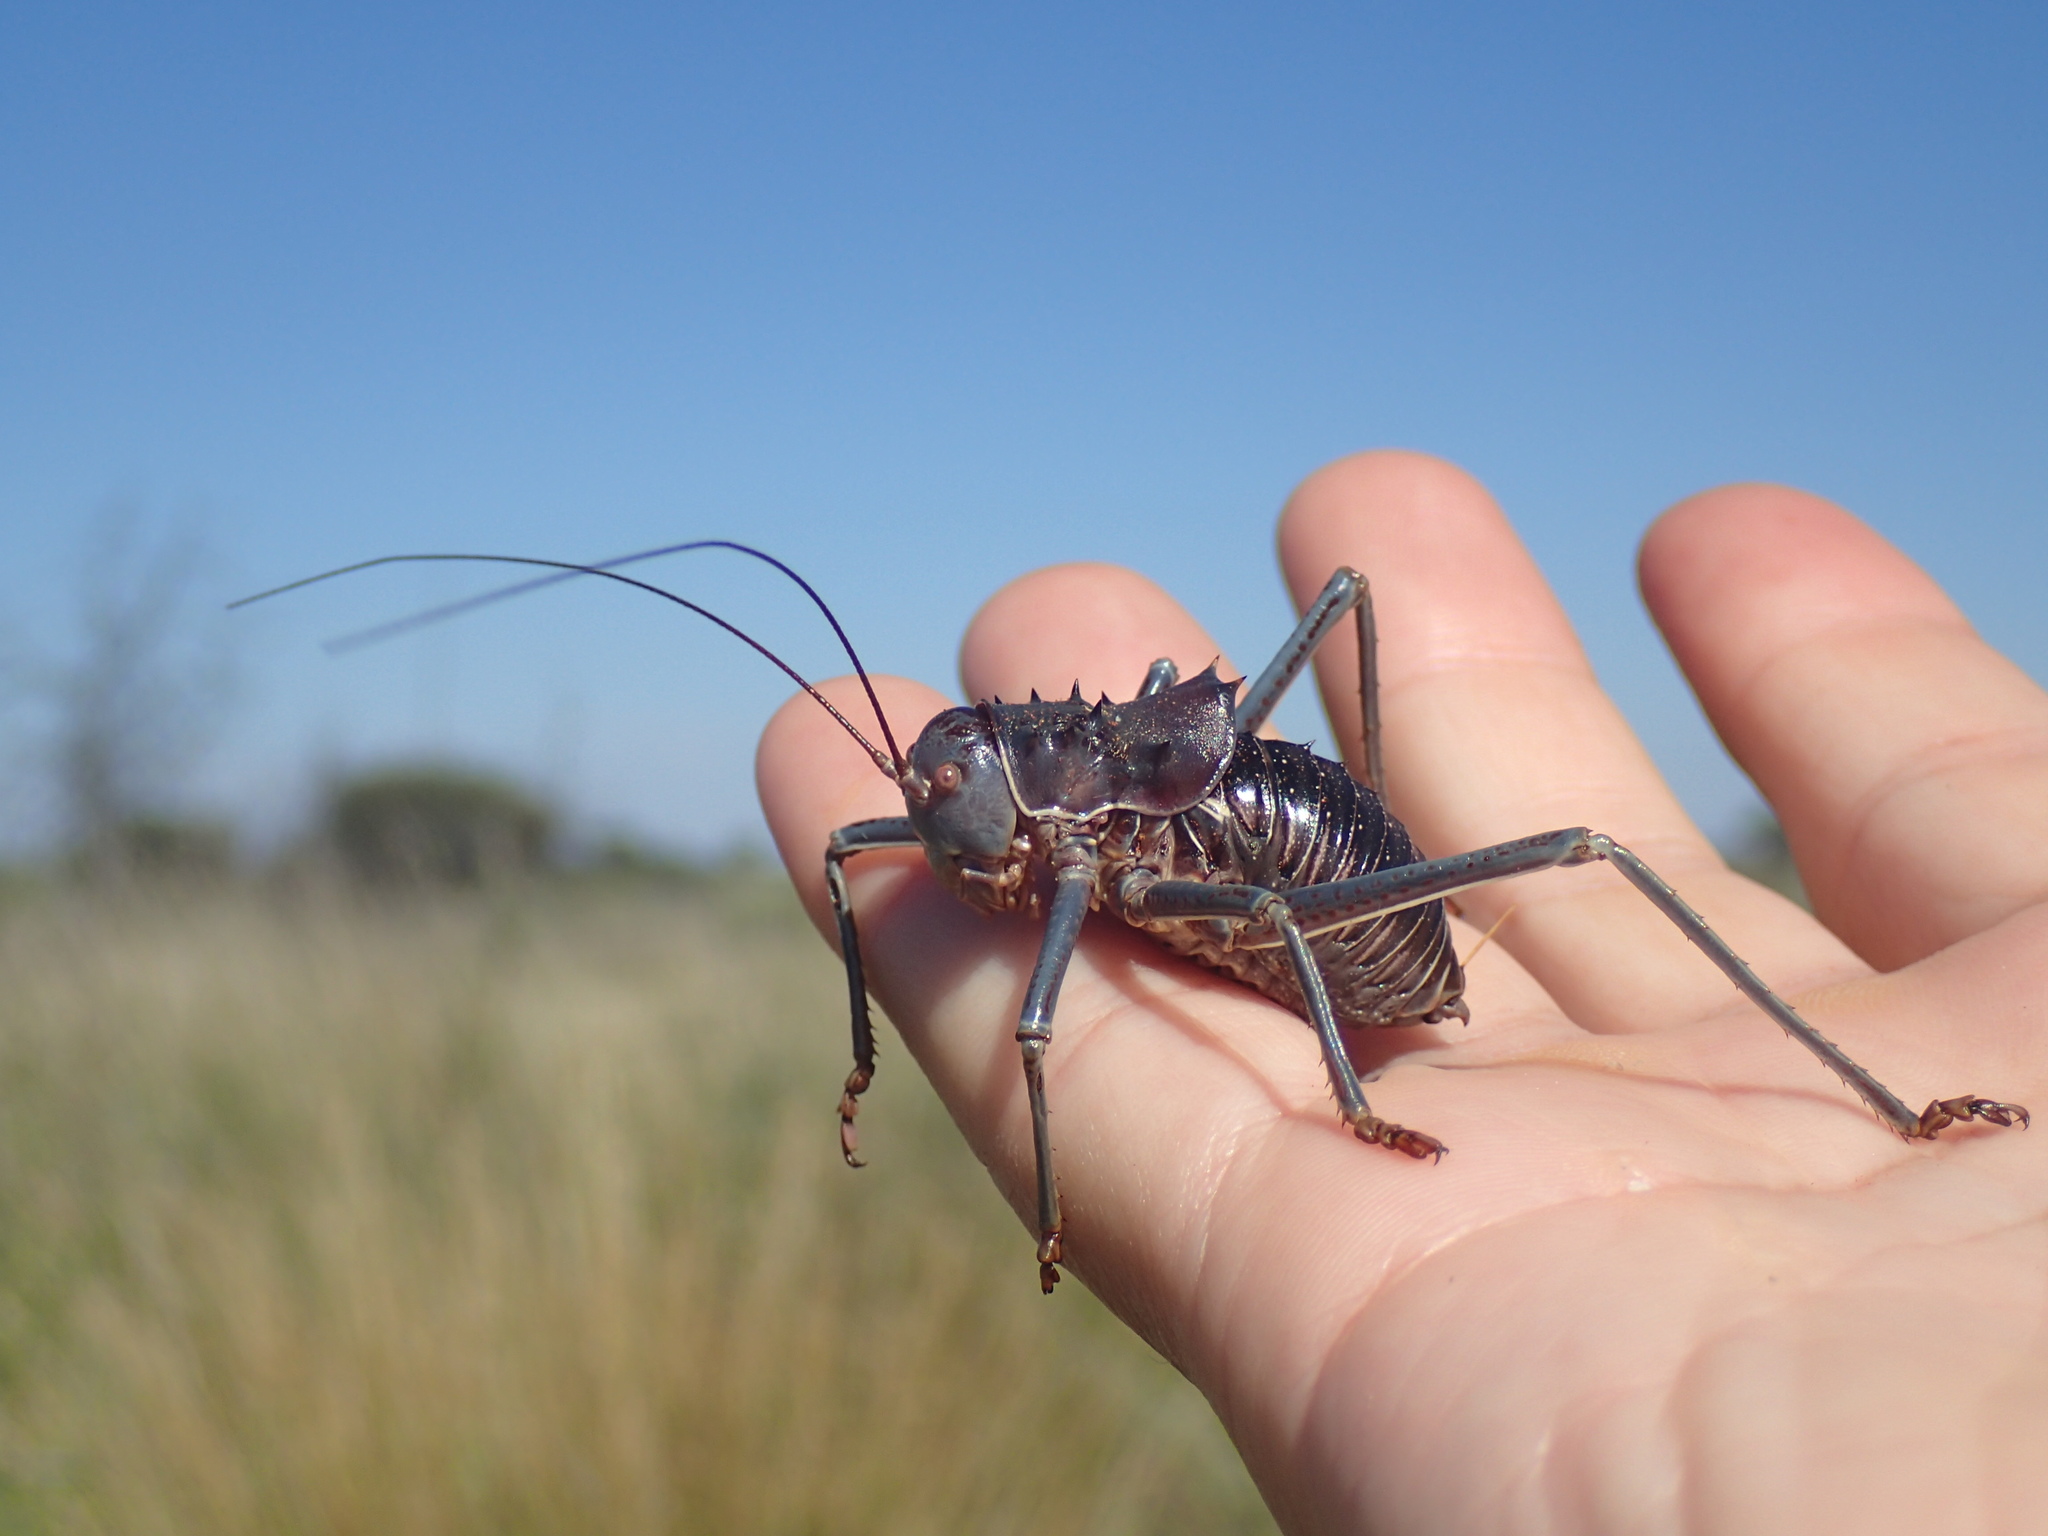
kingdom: Animalia
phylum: Arthropoda
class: Insecta
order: Orthoptera
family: Tettigoniidae
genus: Acanthoplus
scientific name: Acanthoplus discoidalis
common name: Armoured katydid
